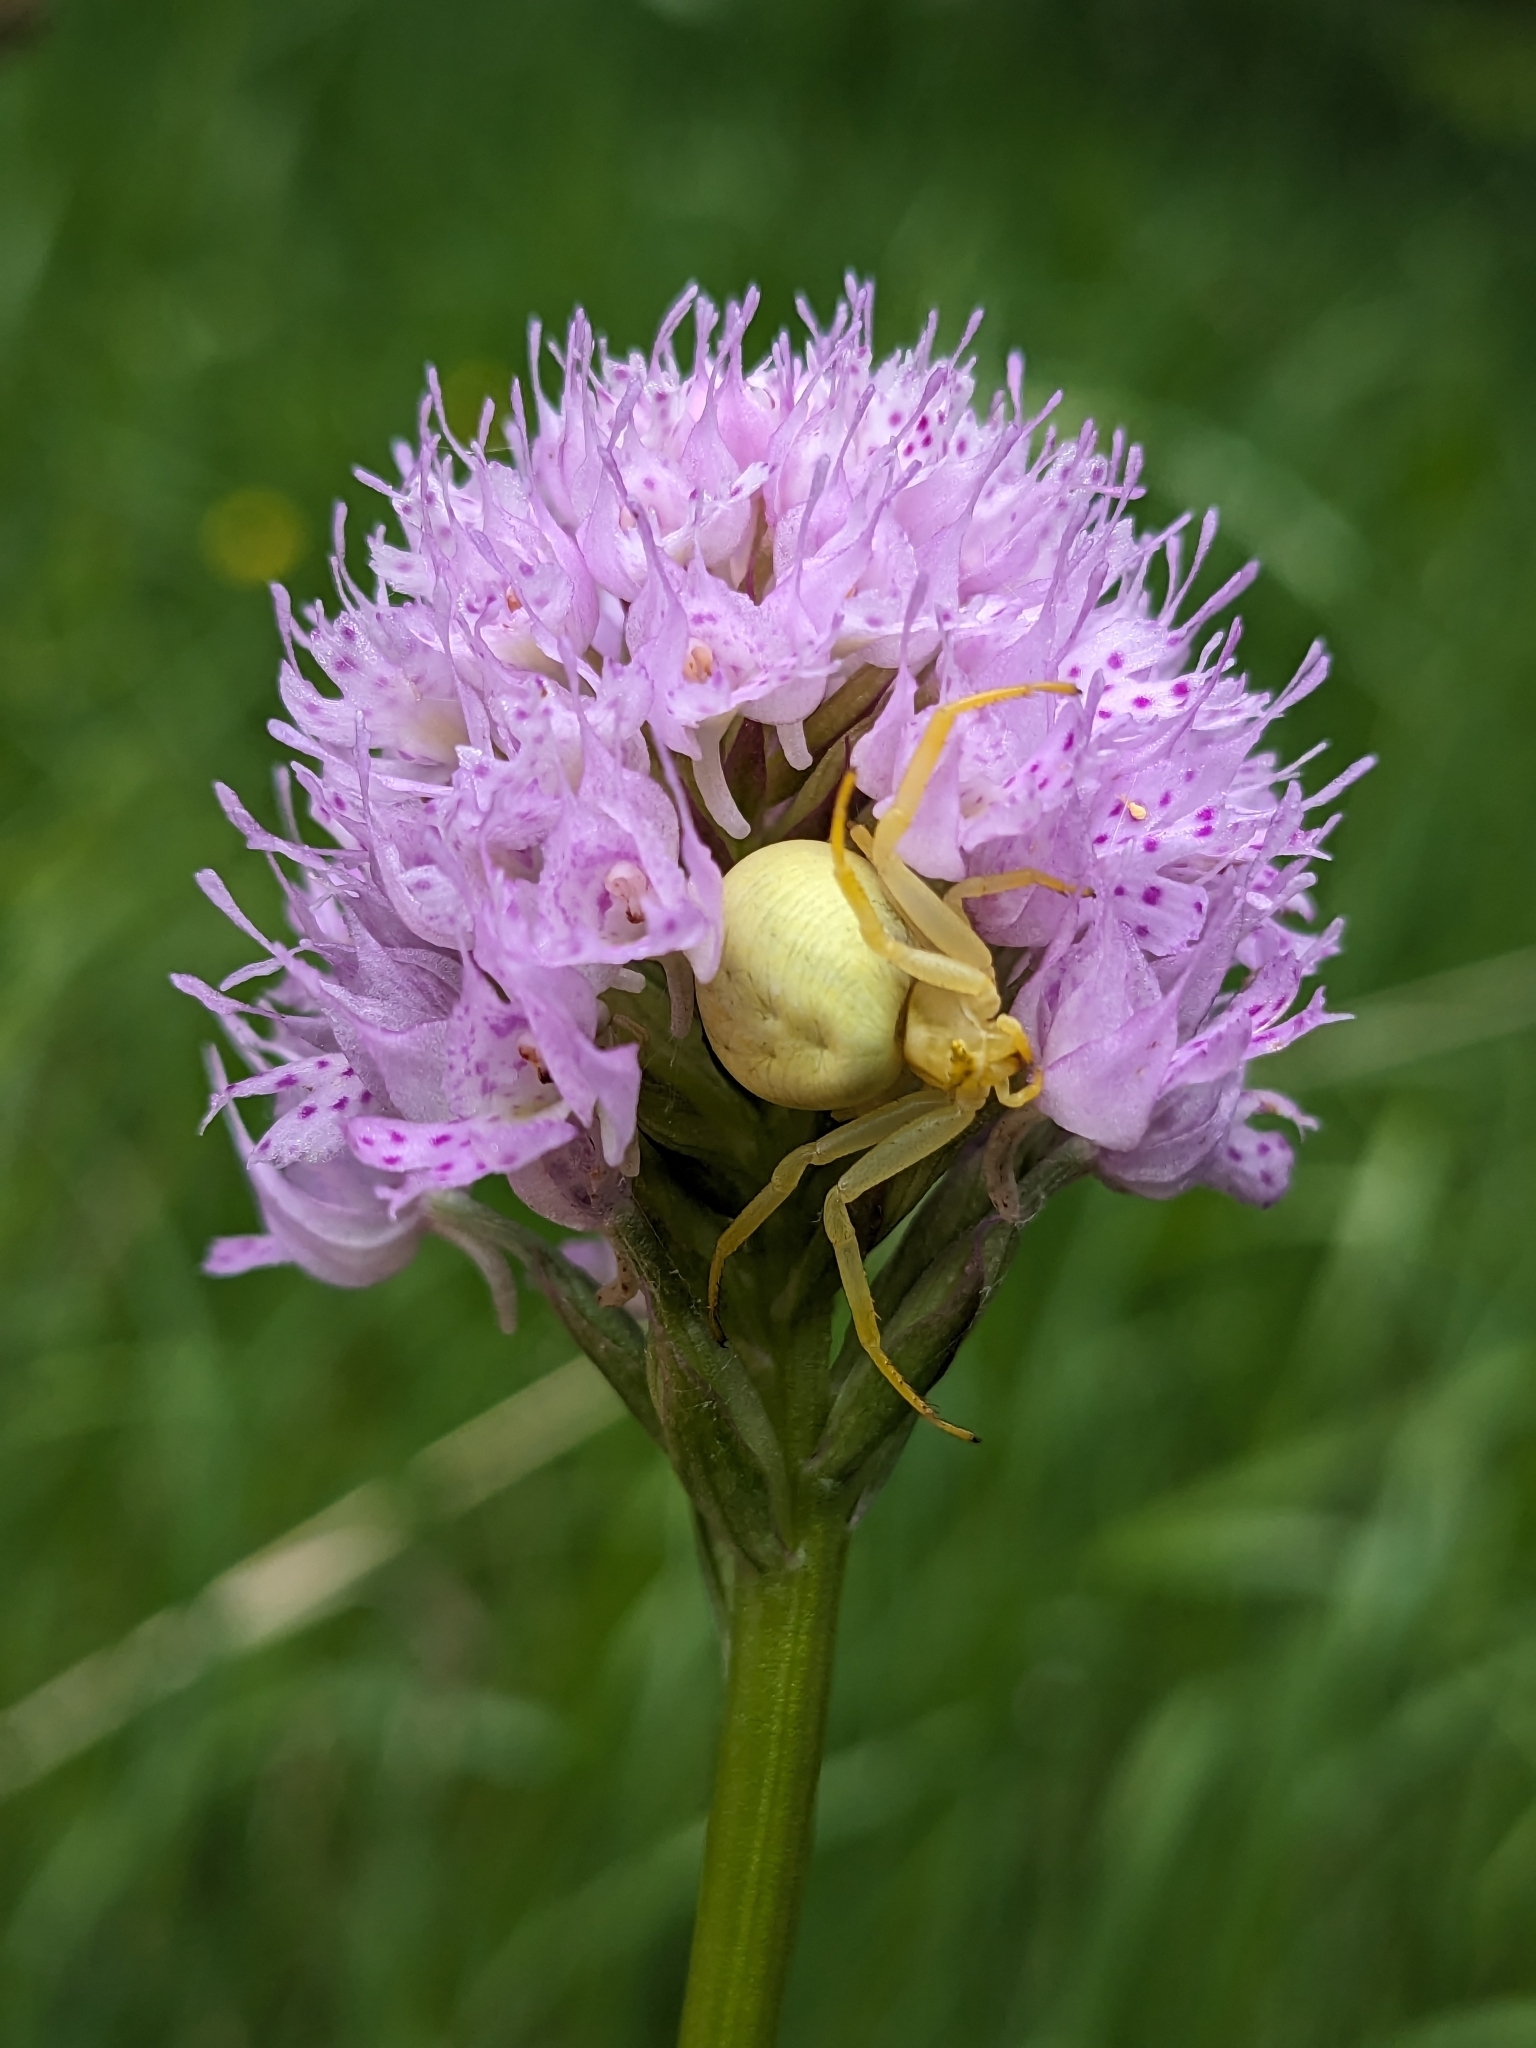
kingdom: Animalia
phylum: Arthropoda
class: Arachnida
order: Araneae
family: Thomisidae
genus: Misumena
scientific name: Misumena vatia
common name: Goldenrod crab spider
